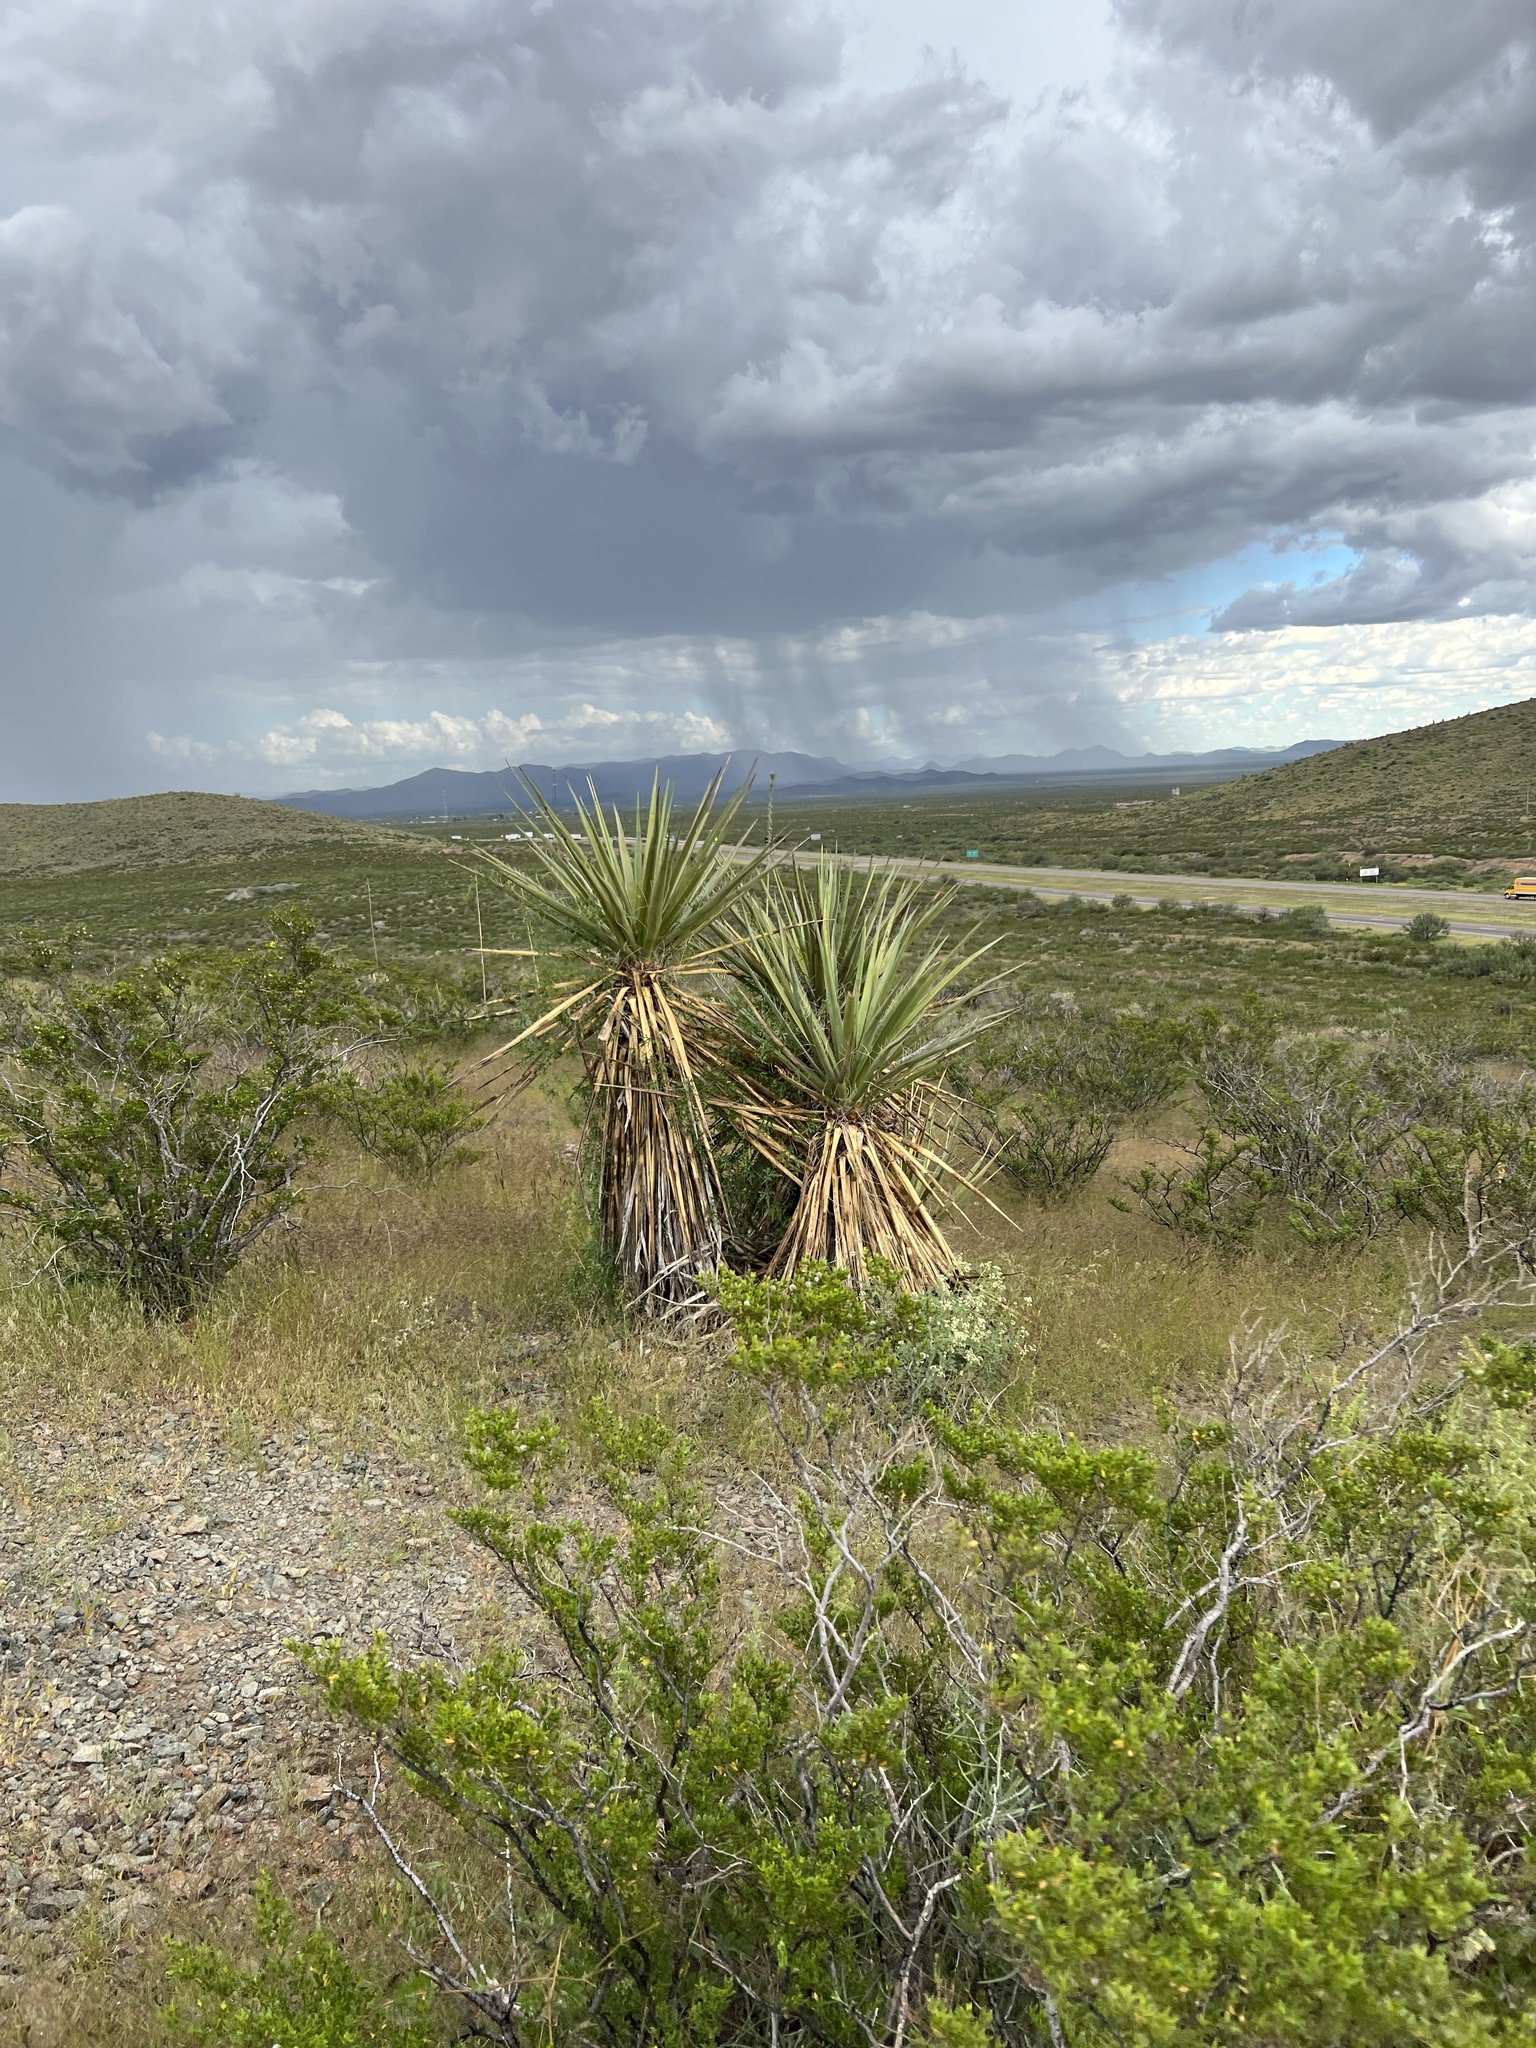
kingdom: Plantae
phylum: Tracheophyta
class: Liliopsida
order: Asparagales
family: Asparagaceae
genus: Yucca
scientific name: Yucca treculiana
